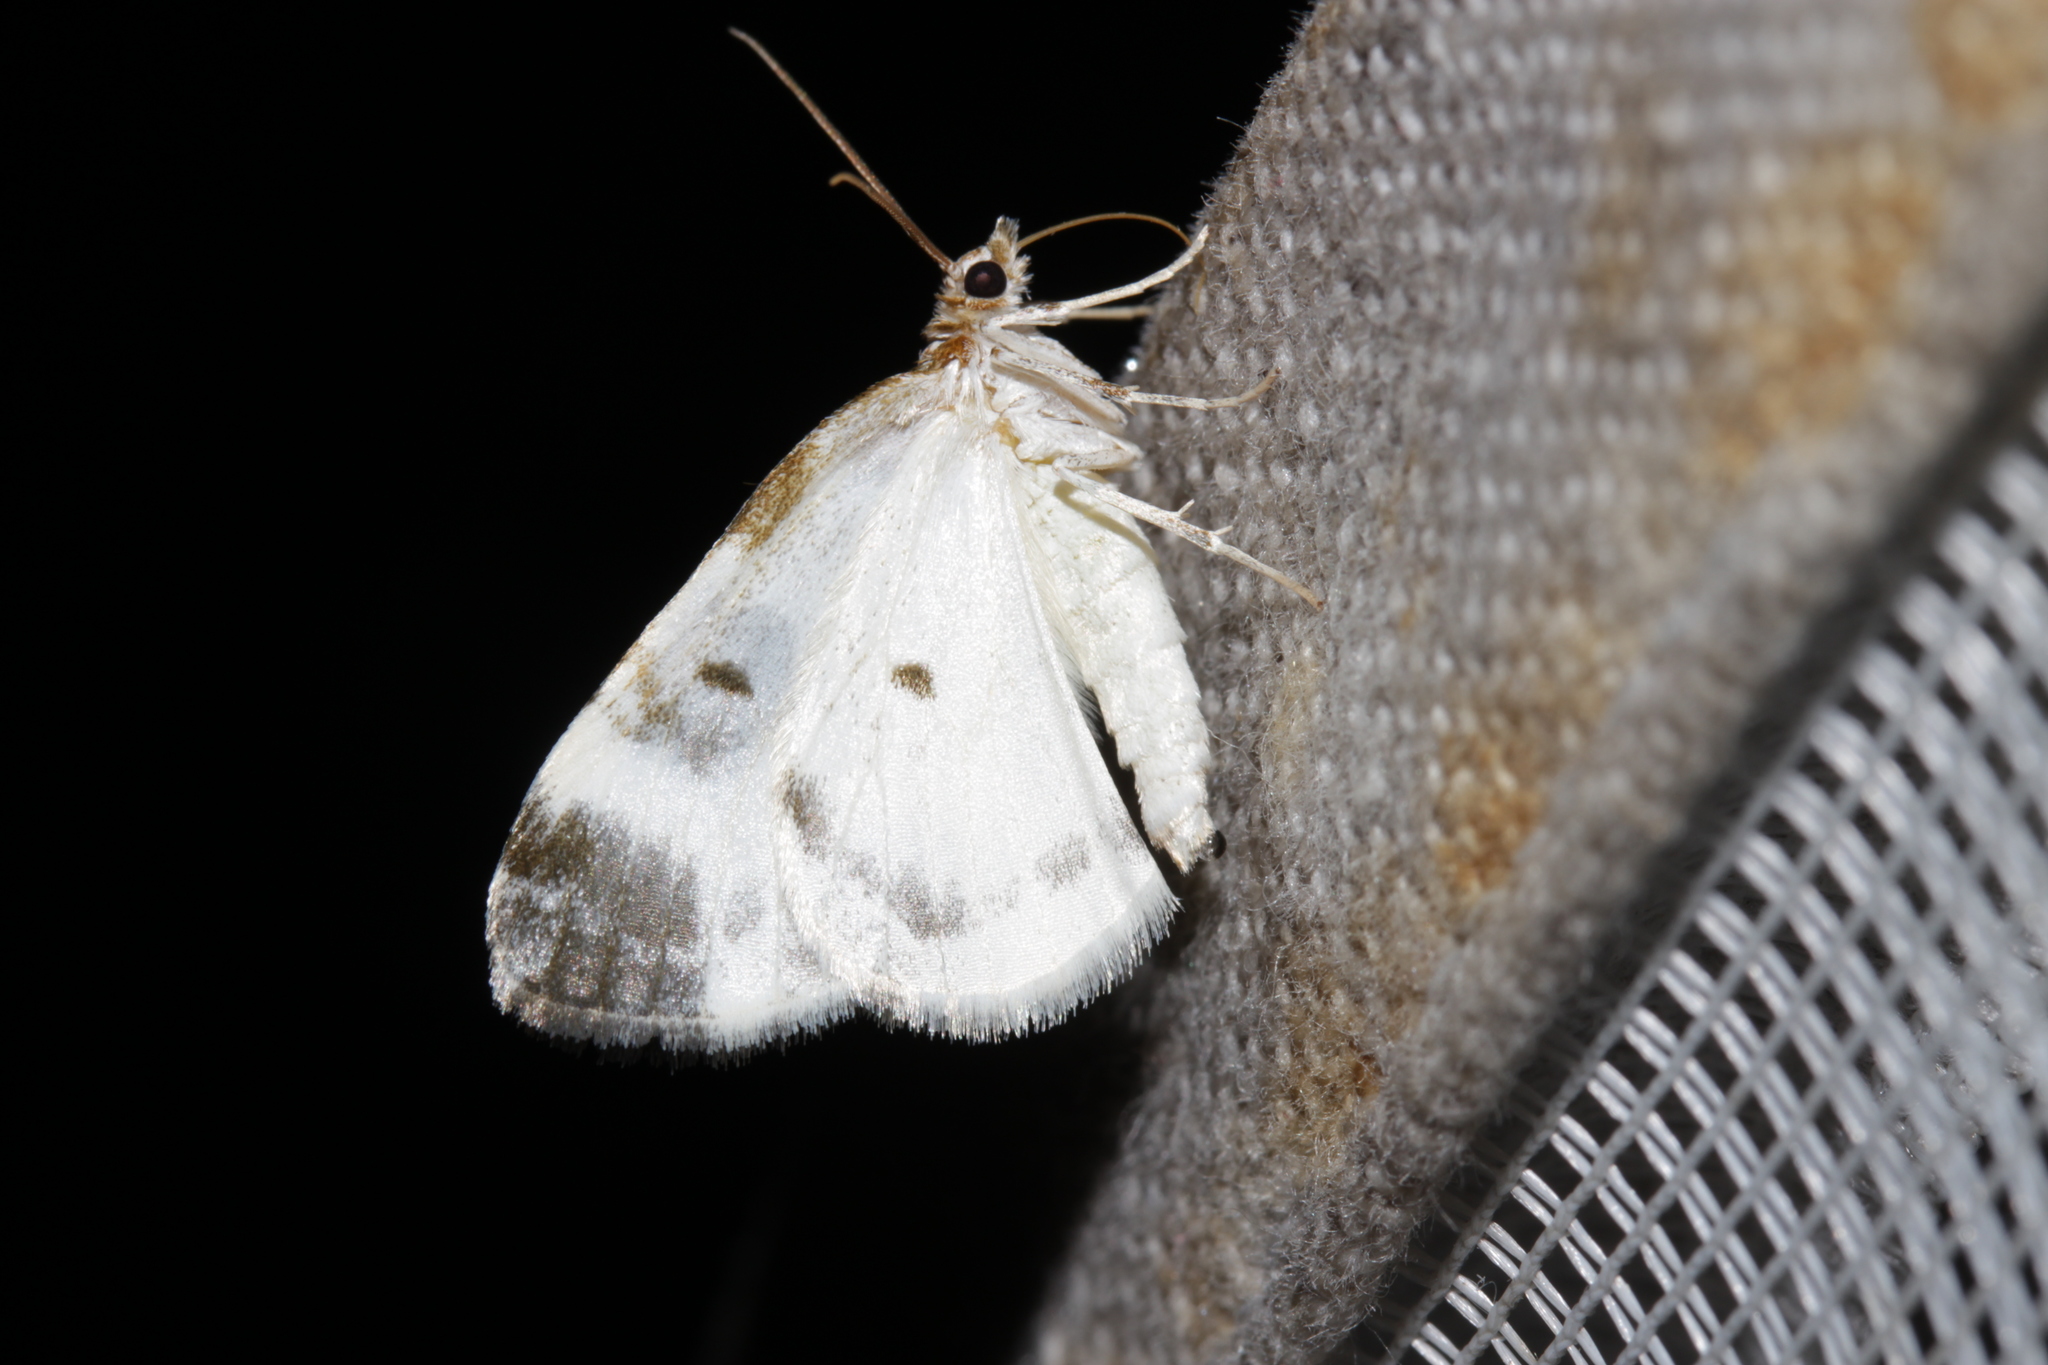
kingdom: Animalia
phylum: Arthropoda
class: Insecta
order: Lepidoptera
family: Geometridae
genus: Plemyria
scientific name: Plemyria rubiginata
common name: Blue-bordered carpet
